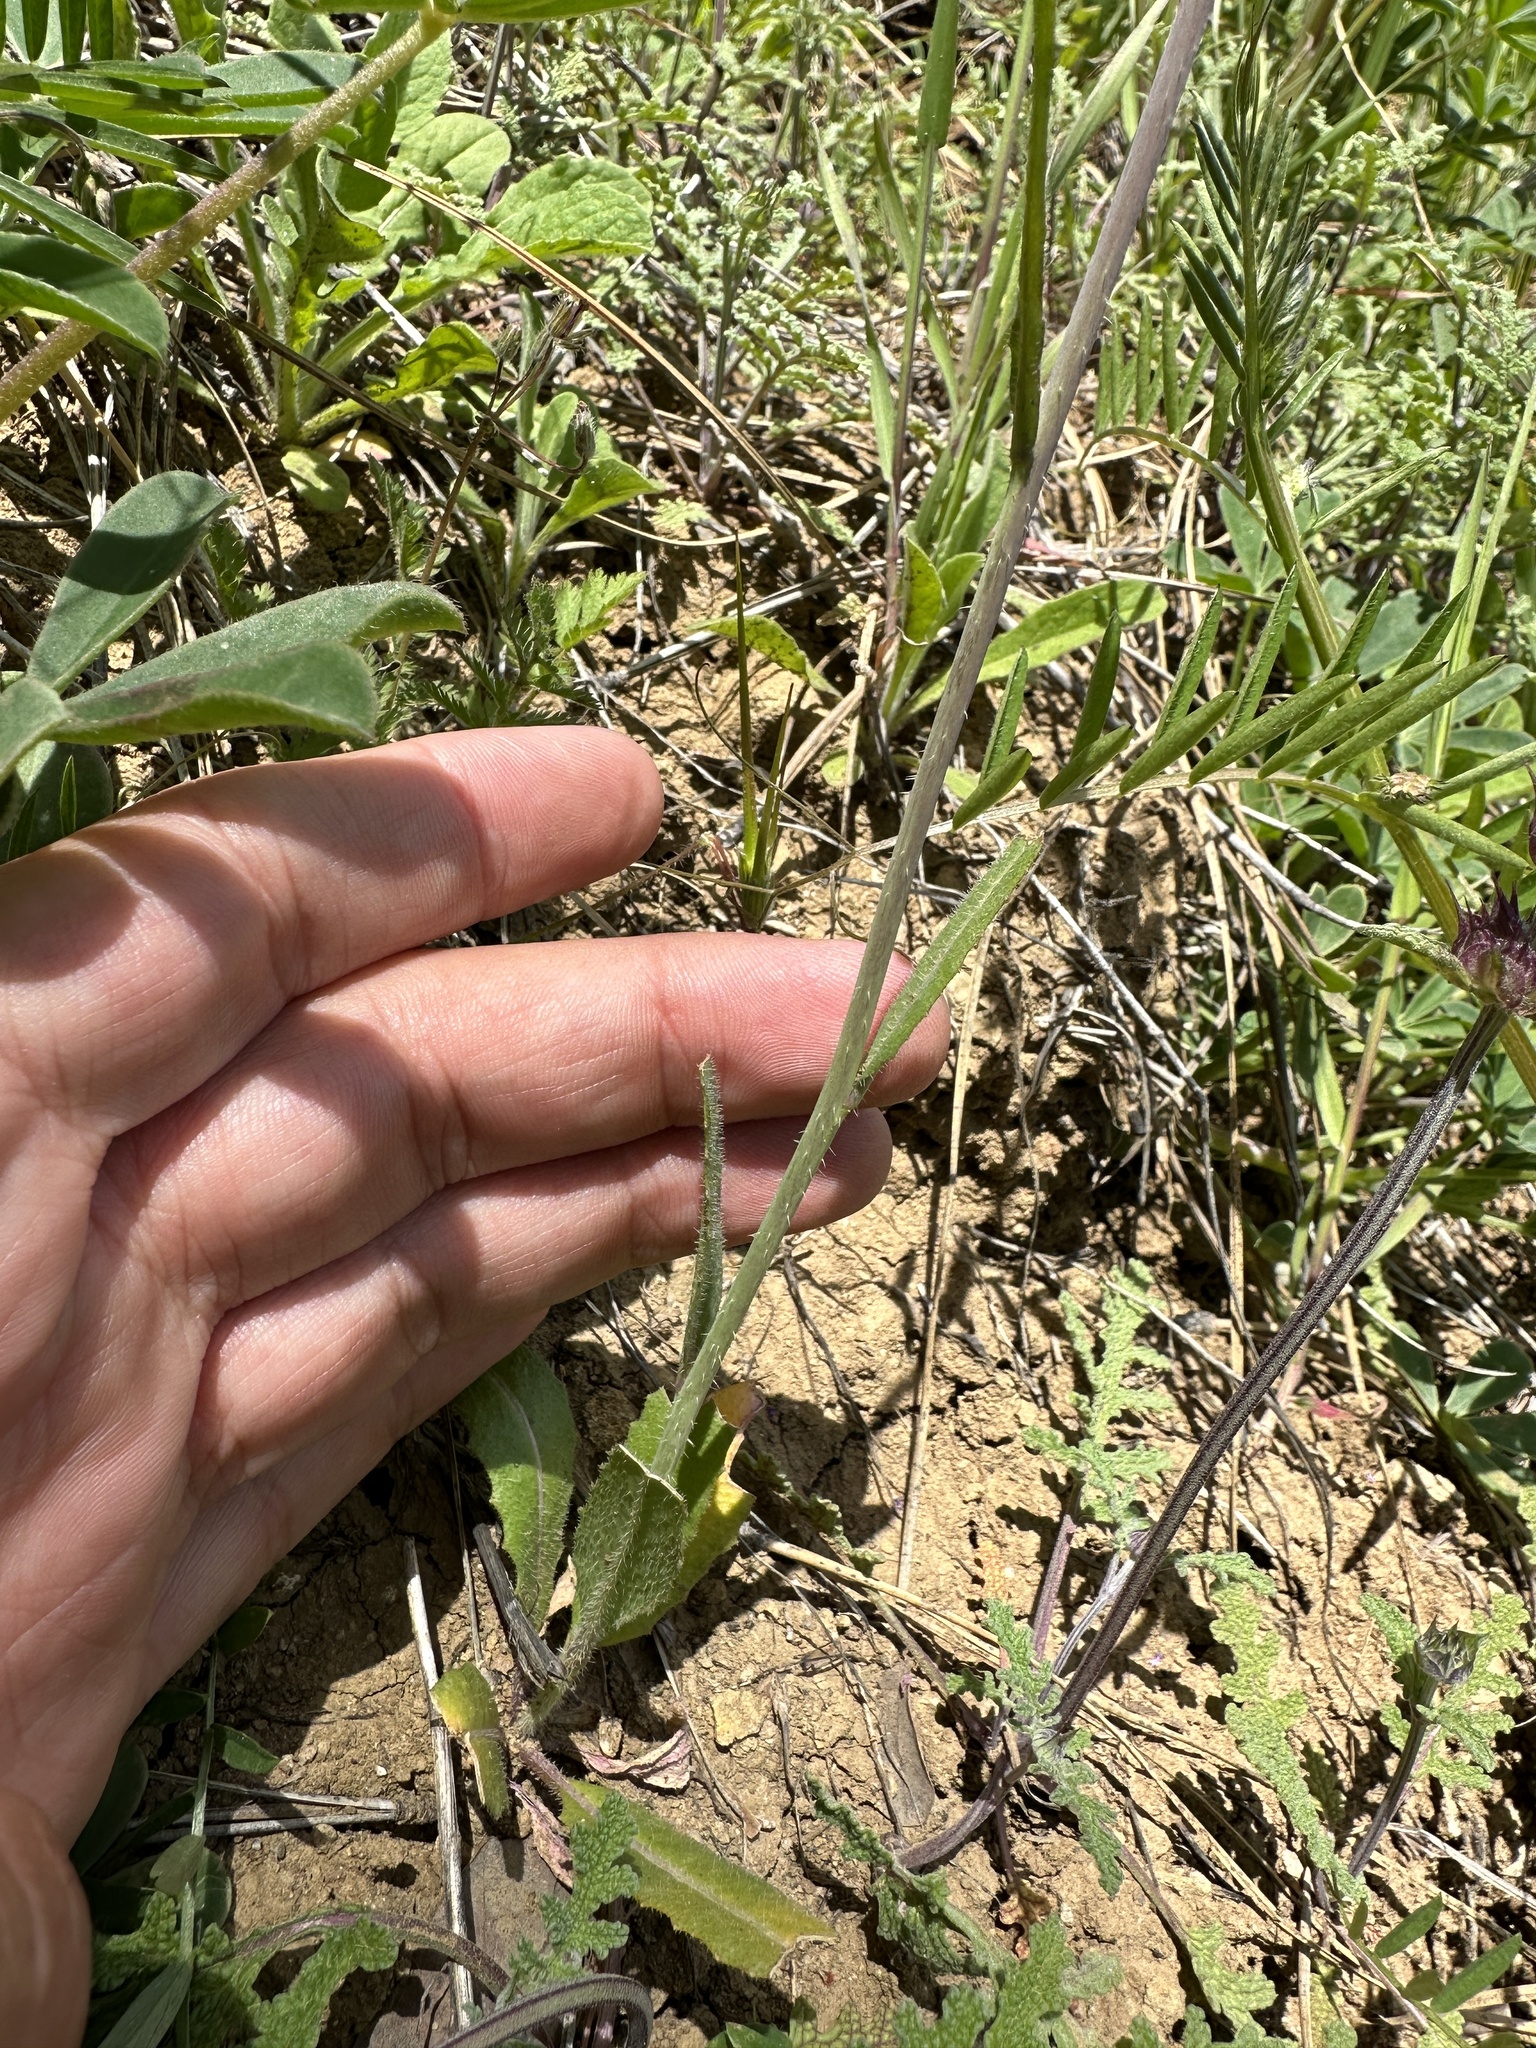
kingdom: Plantae
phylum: Tracheophyta
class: Magnoliopsida
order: Brassicales
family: Brassicaceae
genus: Streptanthus
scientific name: Streptanthus flavescens
